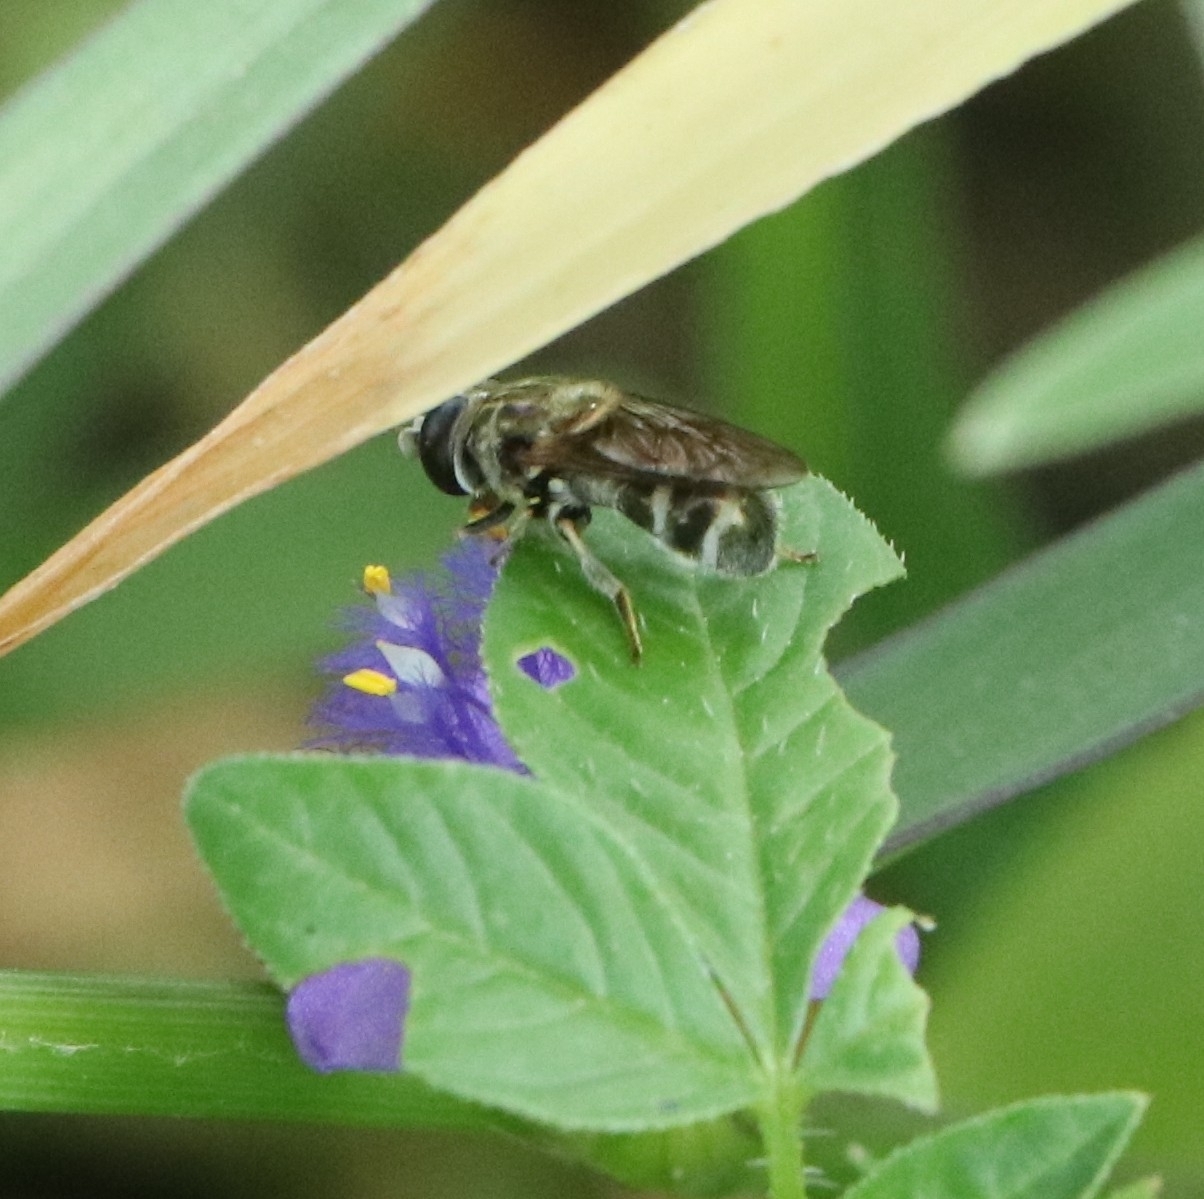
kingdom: Animalia
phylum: Arthropoda
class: Insecta
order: Diptera
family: Syrphidae
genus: Eumerus
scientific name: Eumerus
